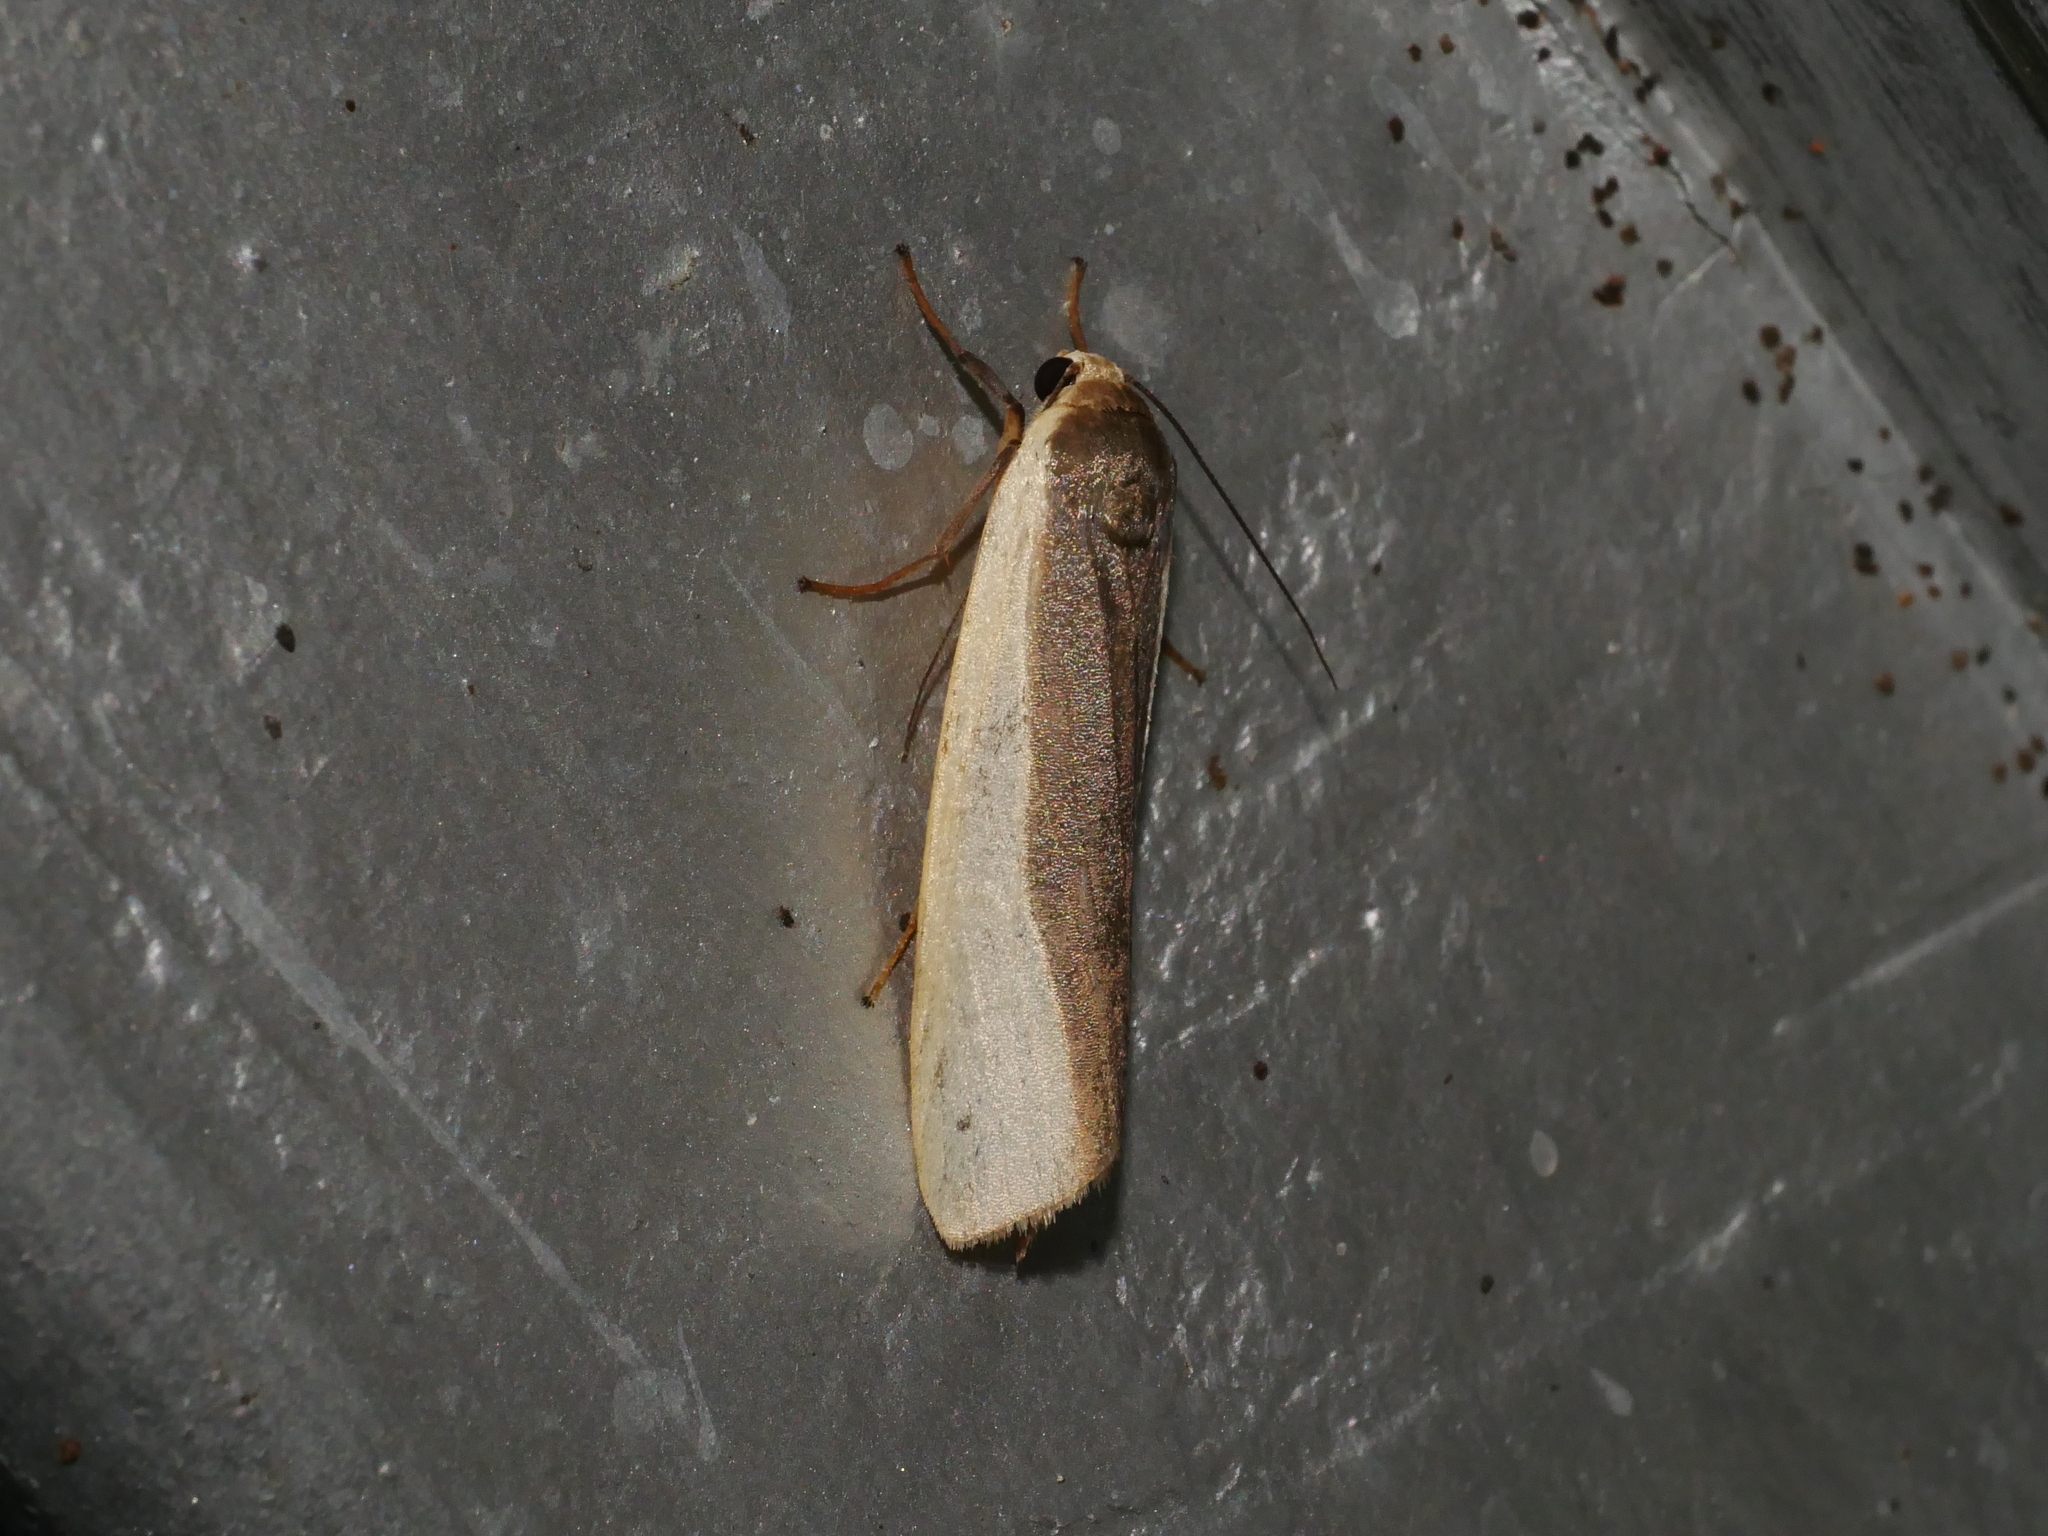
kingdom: Animalia
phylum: Arthropoda
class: Insecta
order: Lepidoptera
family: Erebidae
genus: Hesudra
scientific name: Hesudra divisa
